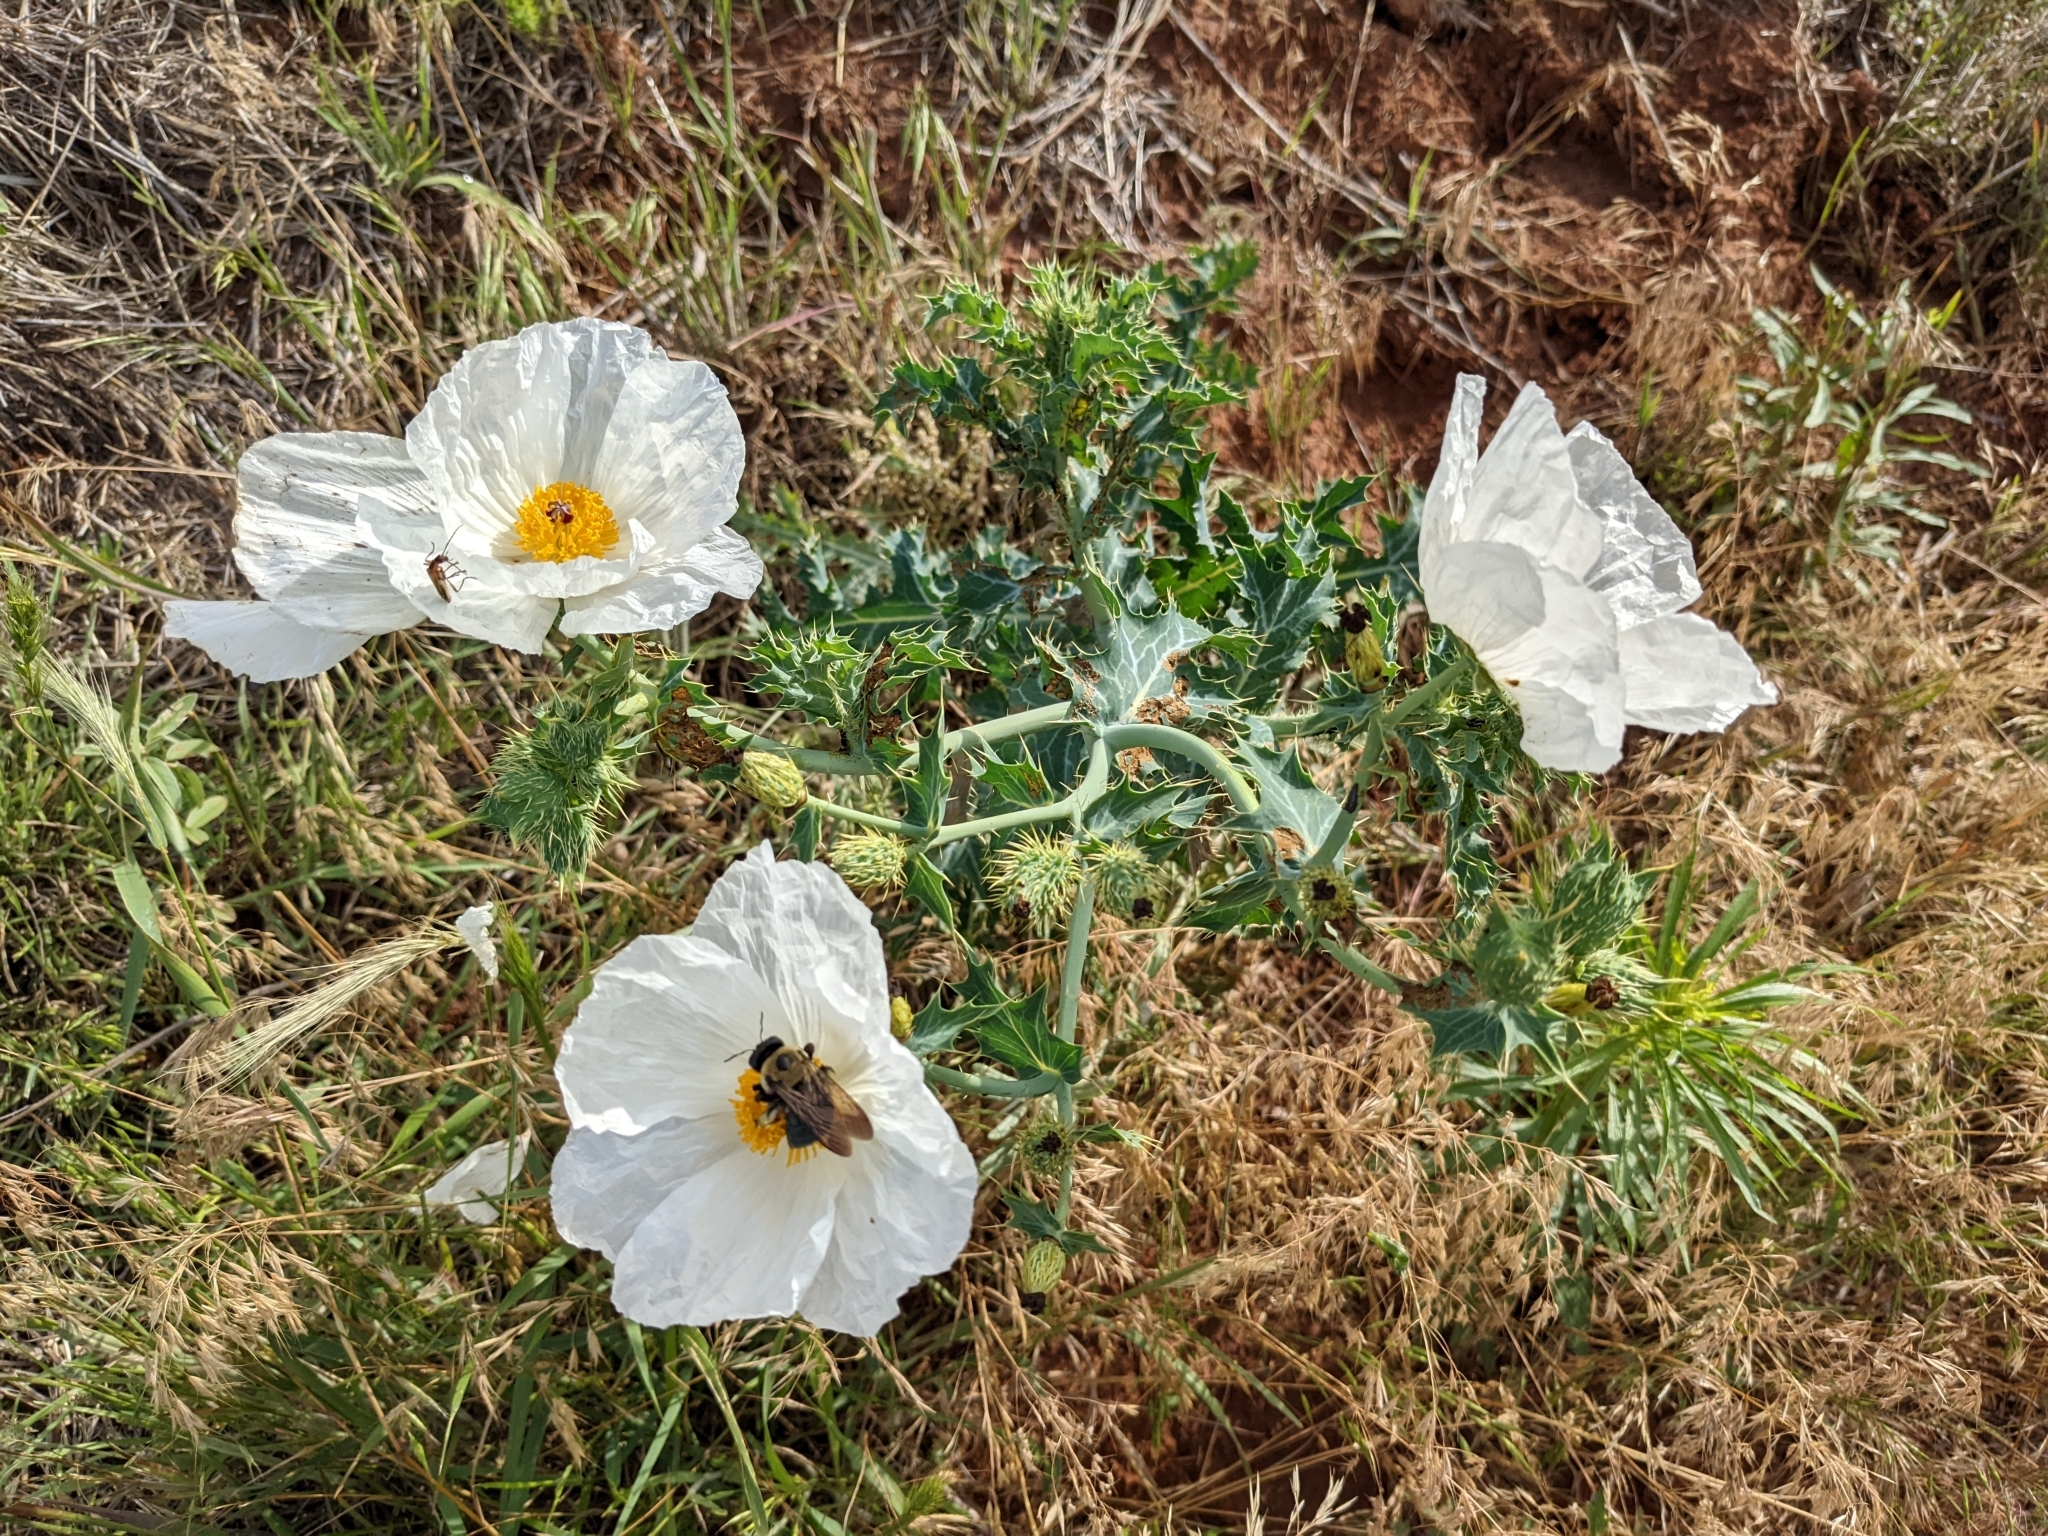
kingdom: Plantae
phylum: Tracheophyta
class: Magnoliopsida
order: Ranunculales
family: Papaveraceae
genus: Argemone
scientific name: Argemone polyanthemos
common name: Plains prickly-poppy
